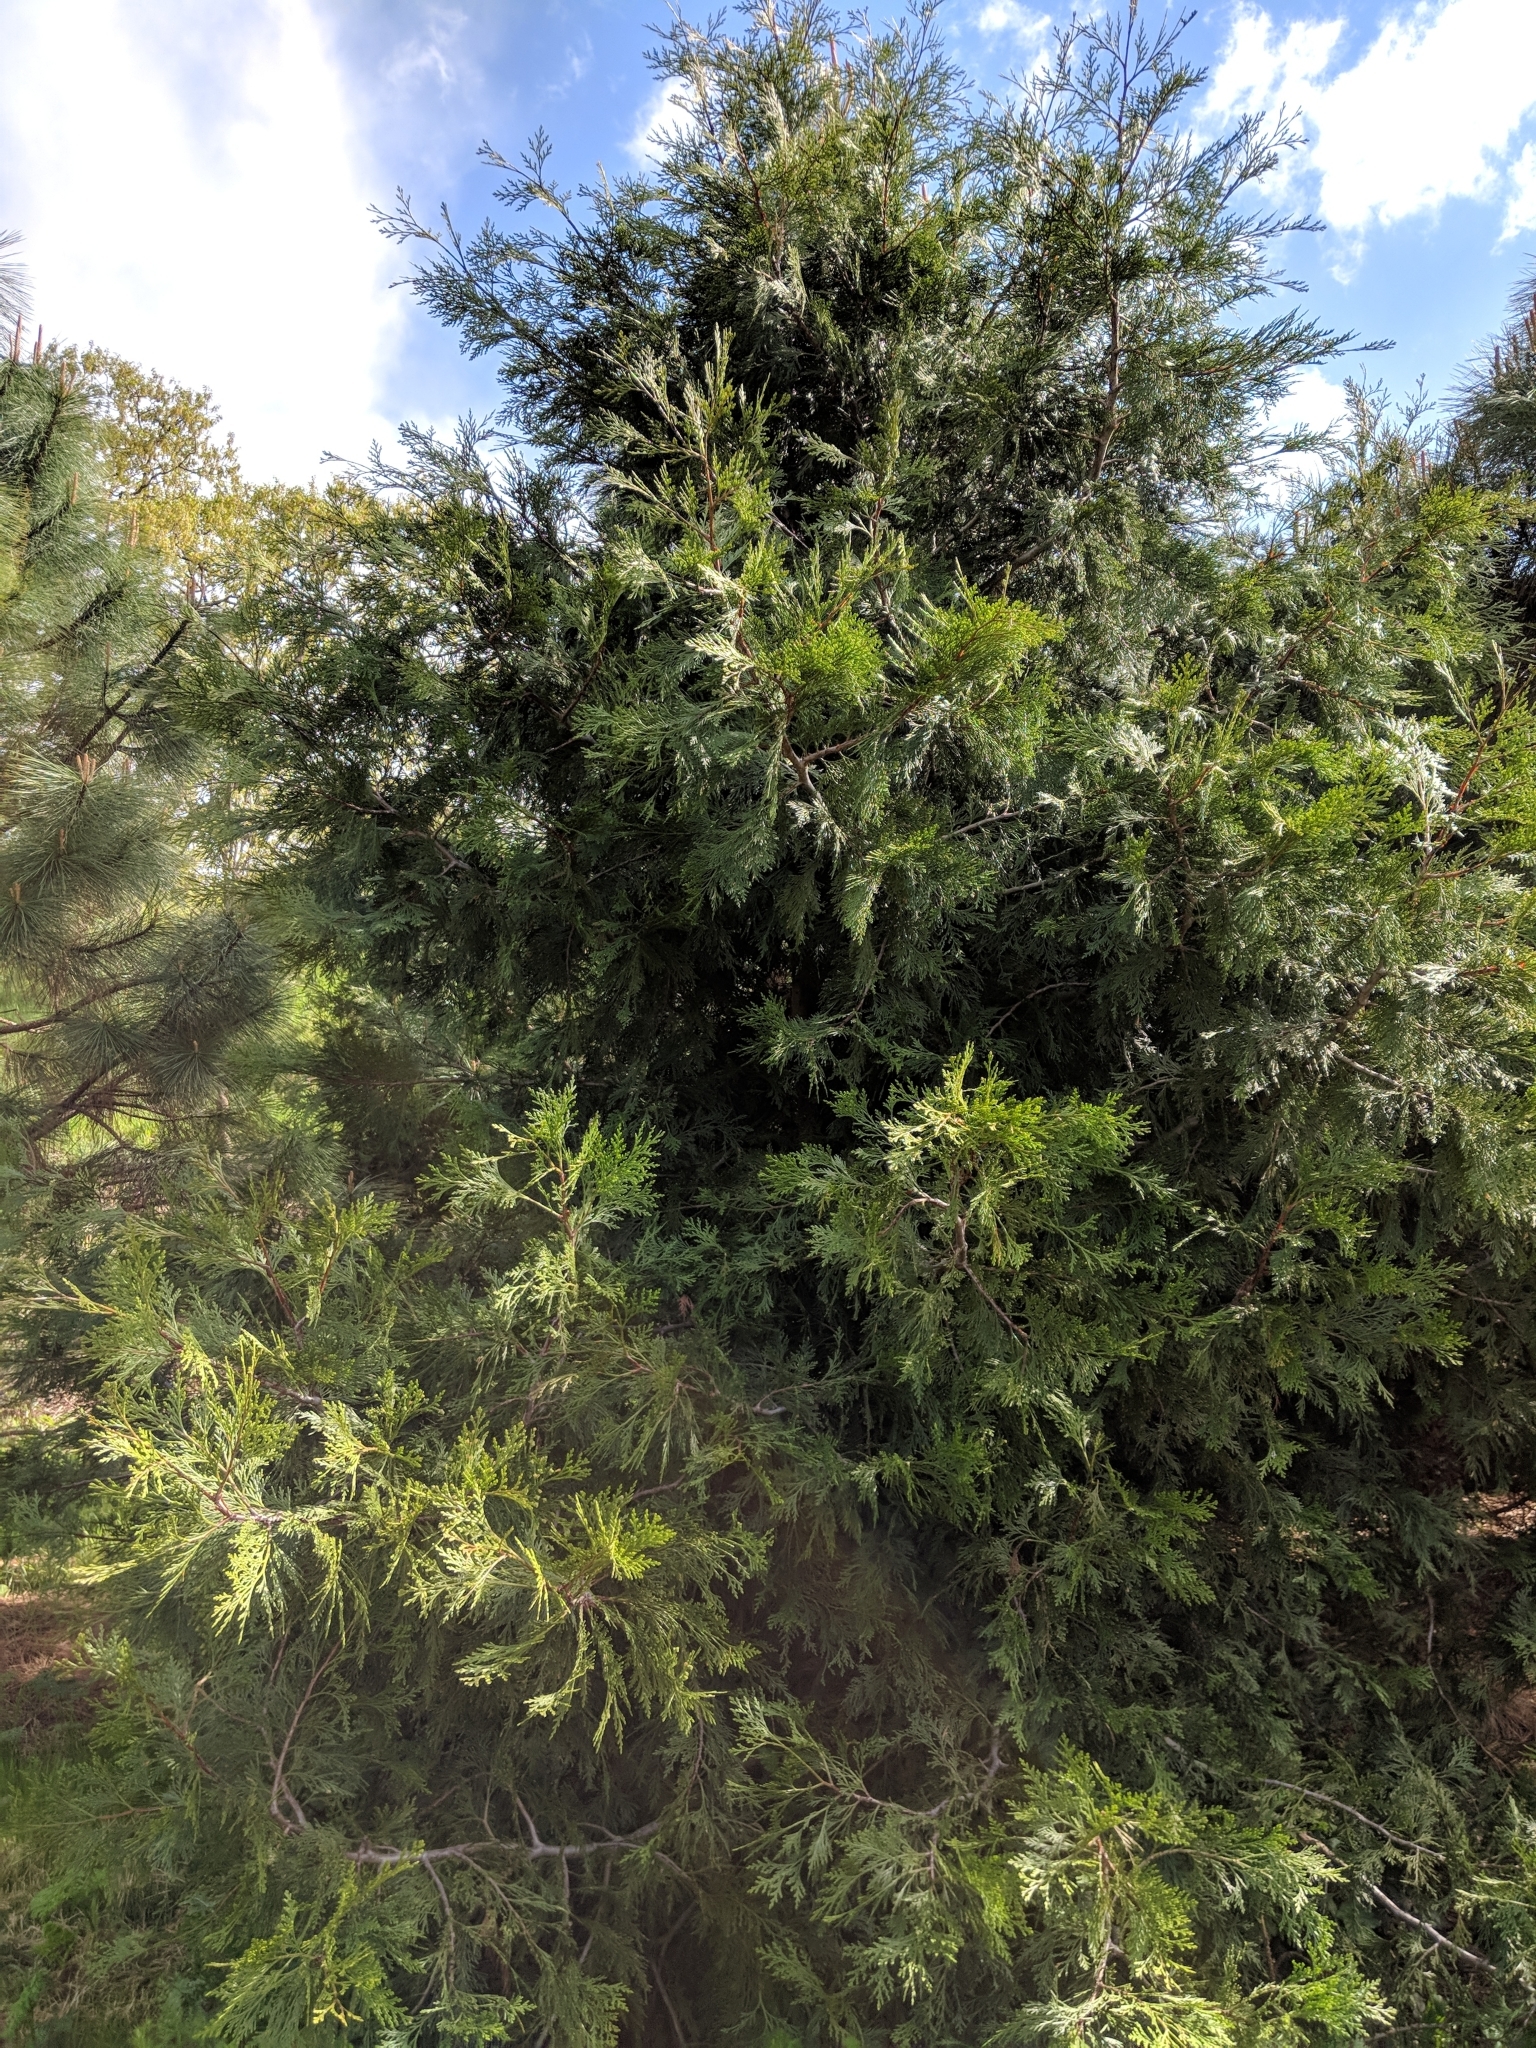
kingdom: Plantae
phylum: Tracheophyta
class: Pinopsida
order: Pinales
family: Cupressaceae
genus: Calocedrus
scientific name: Calocedrus decurrens
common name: Californian incense-cedar
